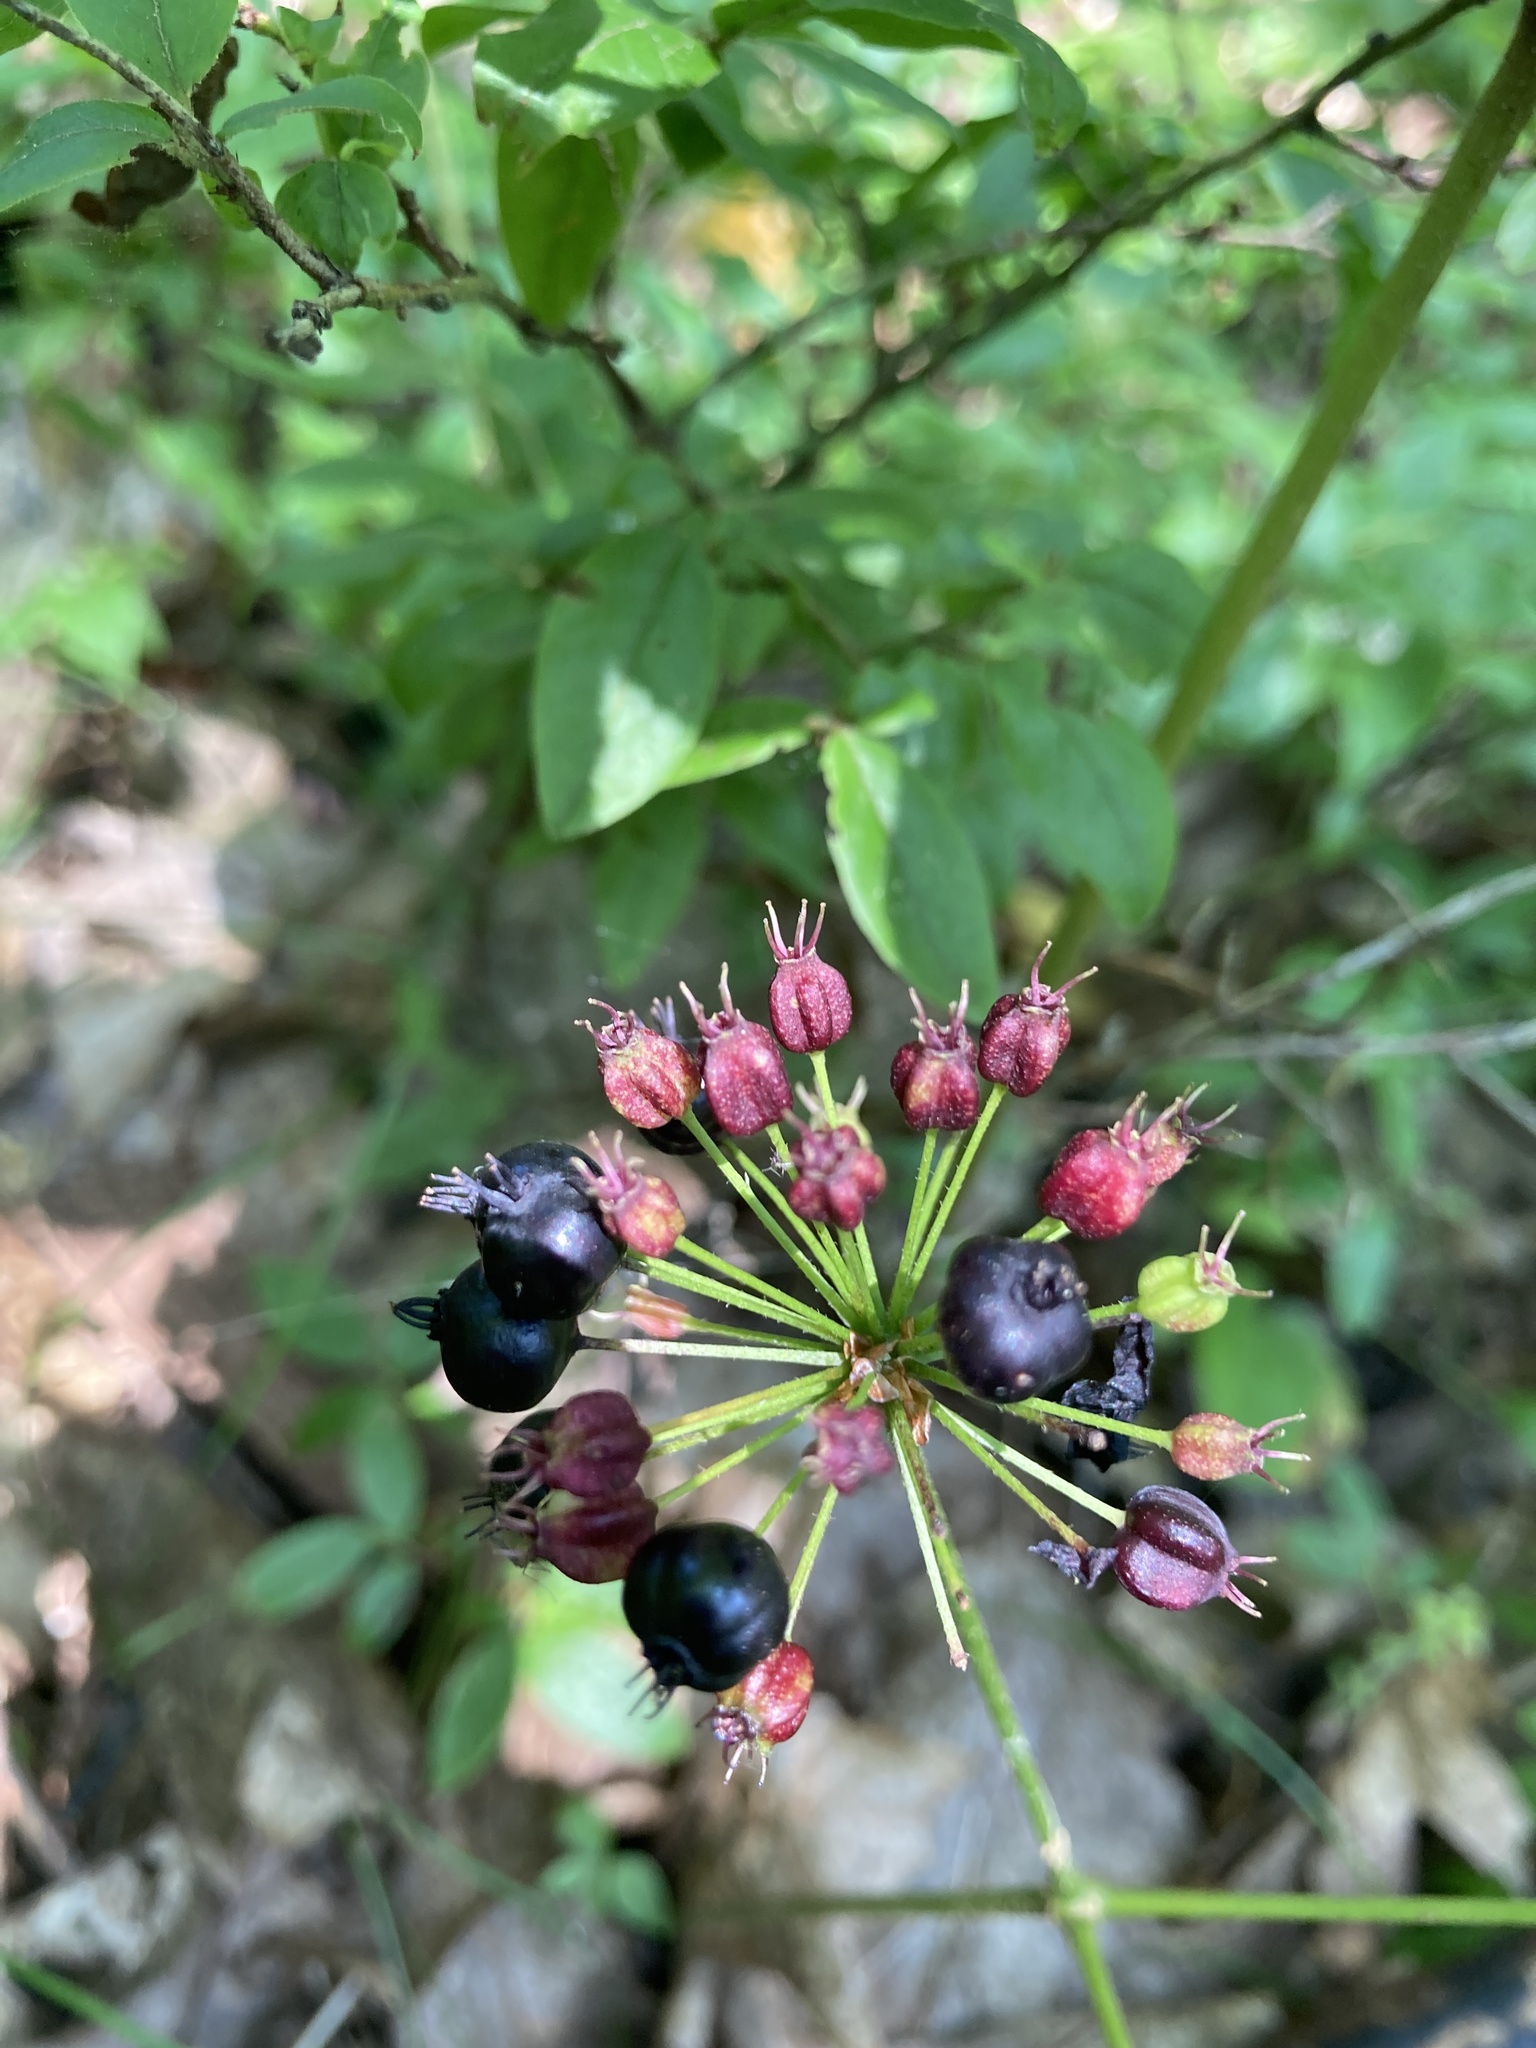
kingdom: Plantae
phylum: Tracheophyta
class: Magnoliopsida
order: Apiales
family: Araliaceae
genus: Aralia
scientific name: Aralia nudicaulis
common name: Wild sarsaparilla
